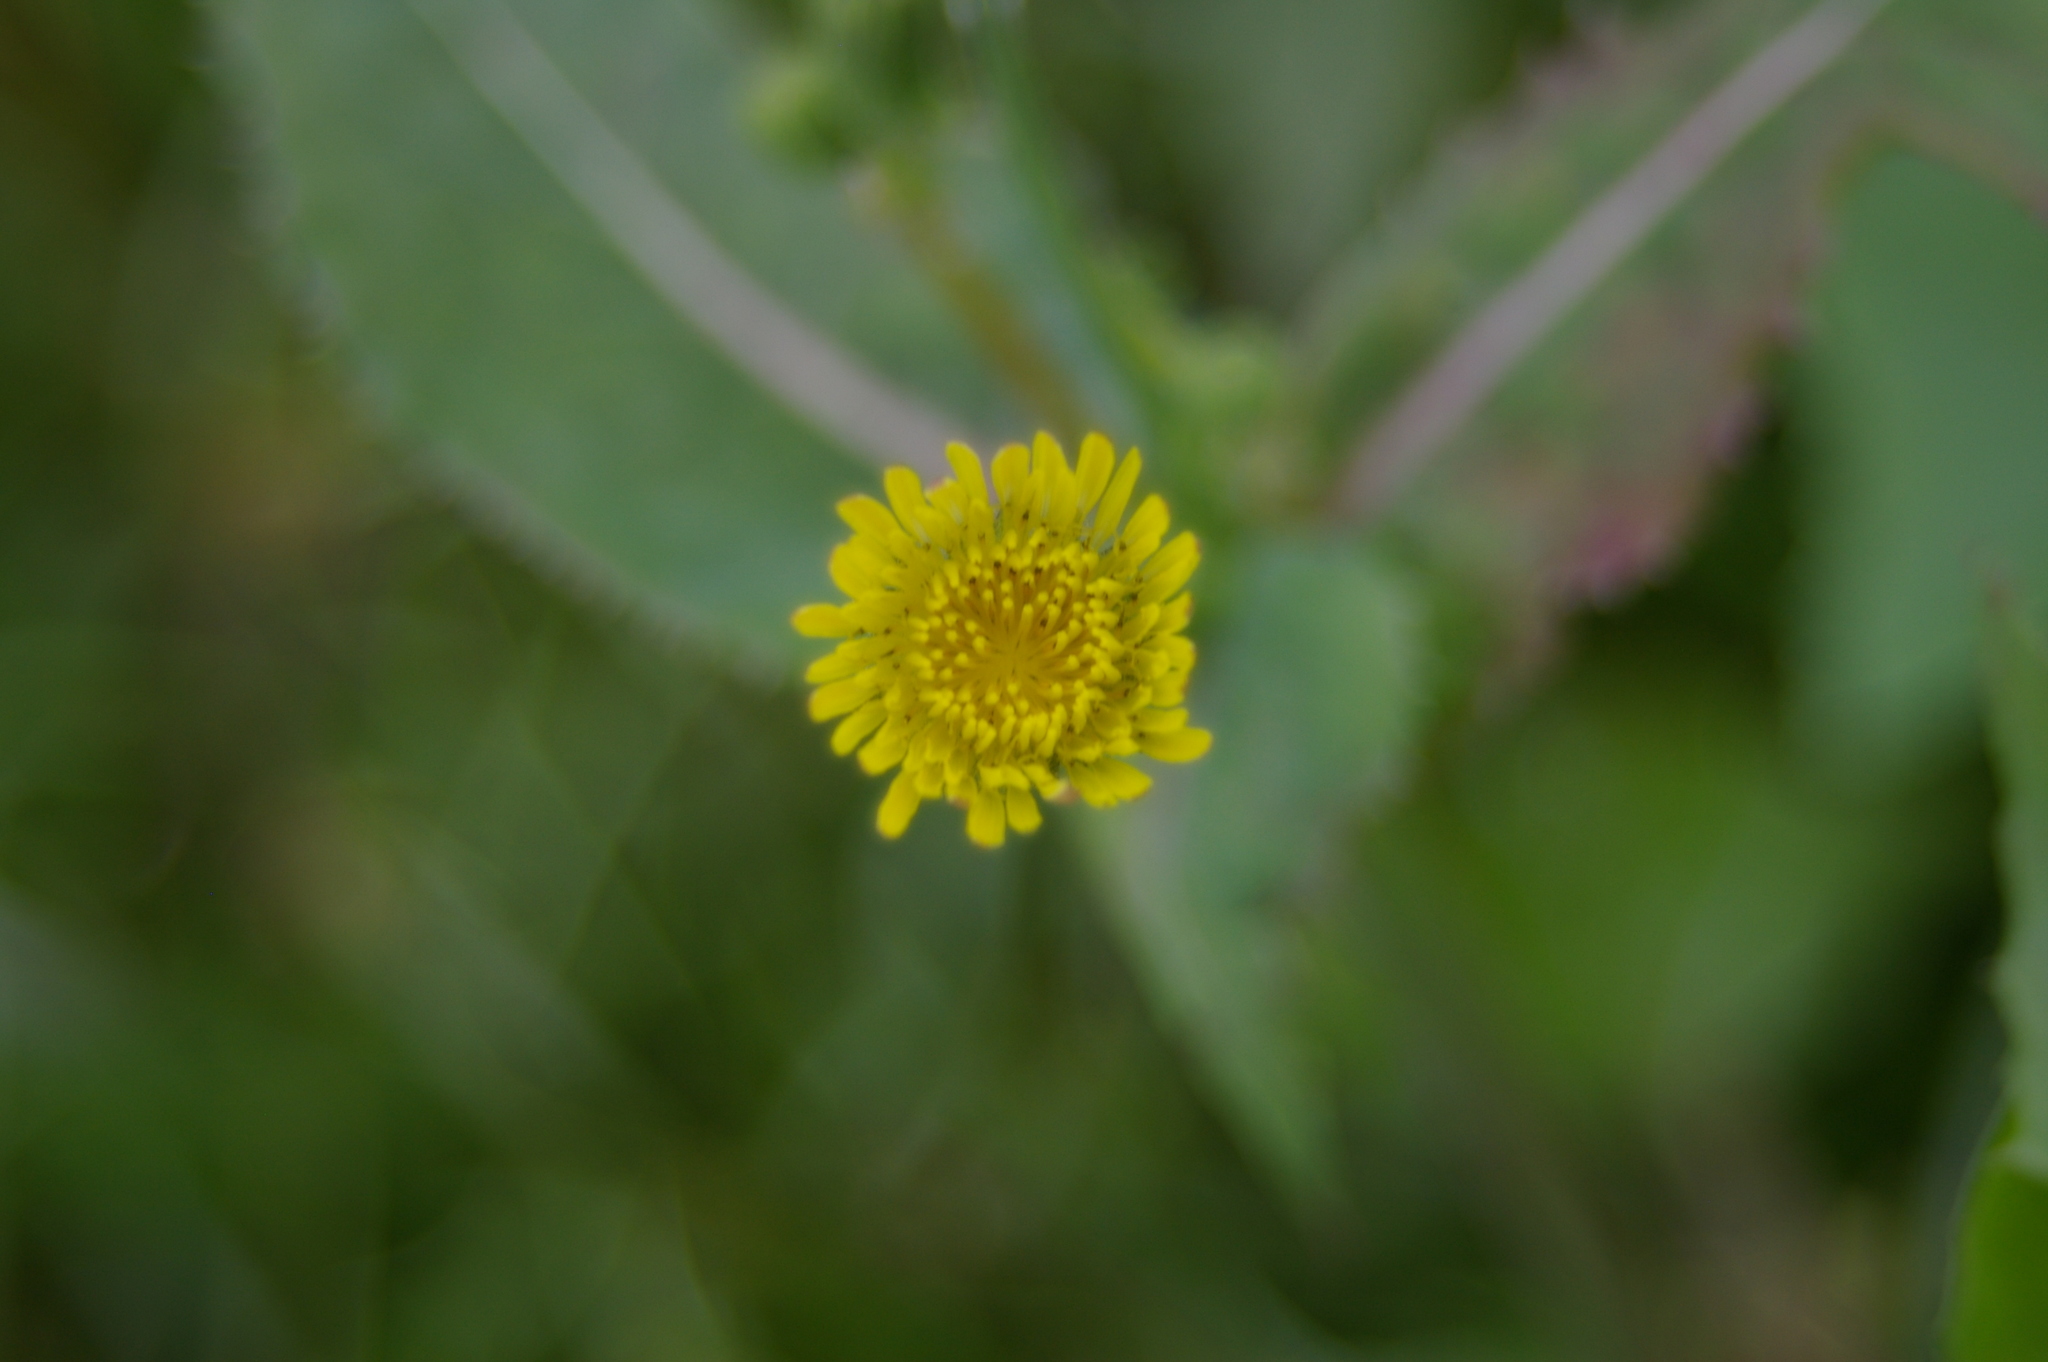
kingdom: Plantae
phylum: Tracheophyta
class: Magnoliopsida
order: Asterales
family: Asteraceae
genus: Sonchus
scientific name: Sonchus oleraceus
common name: Common sowthistle
